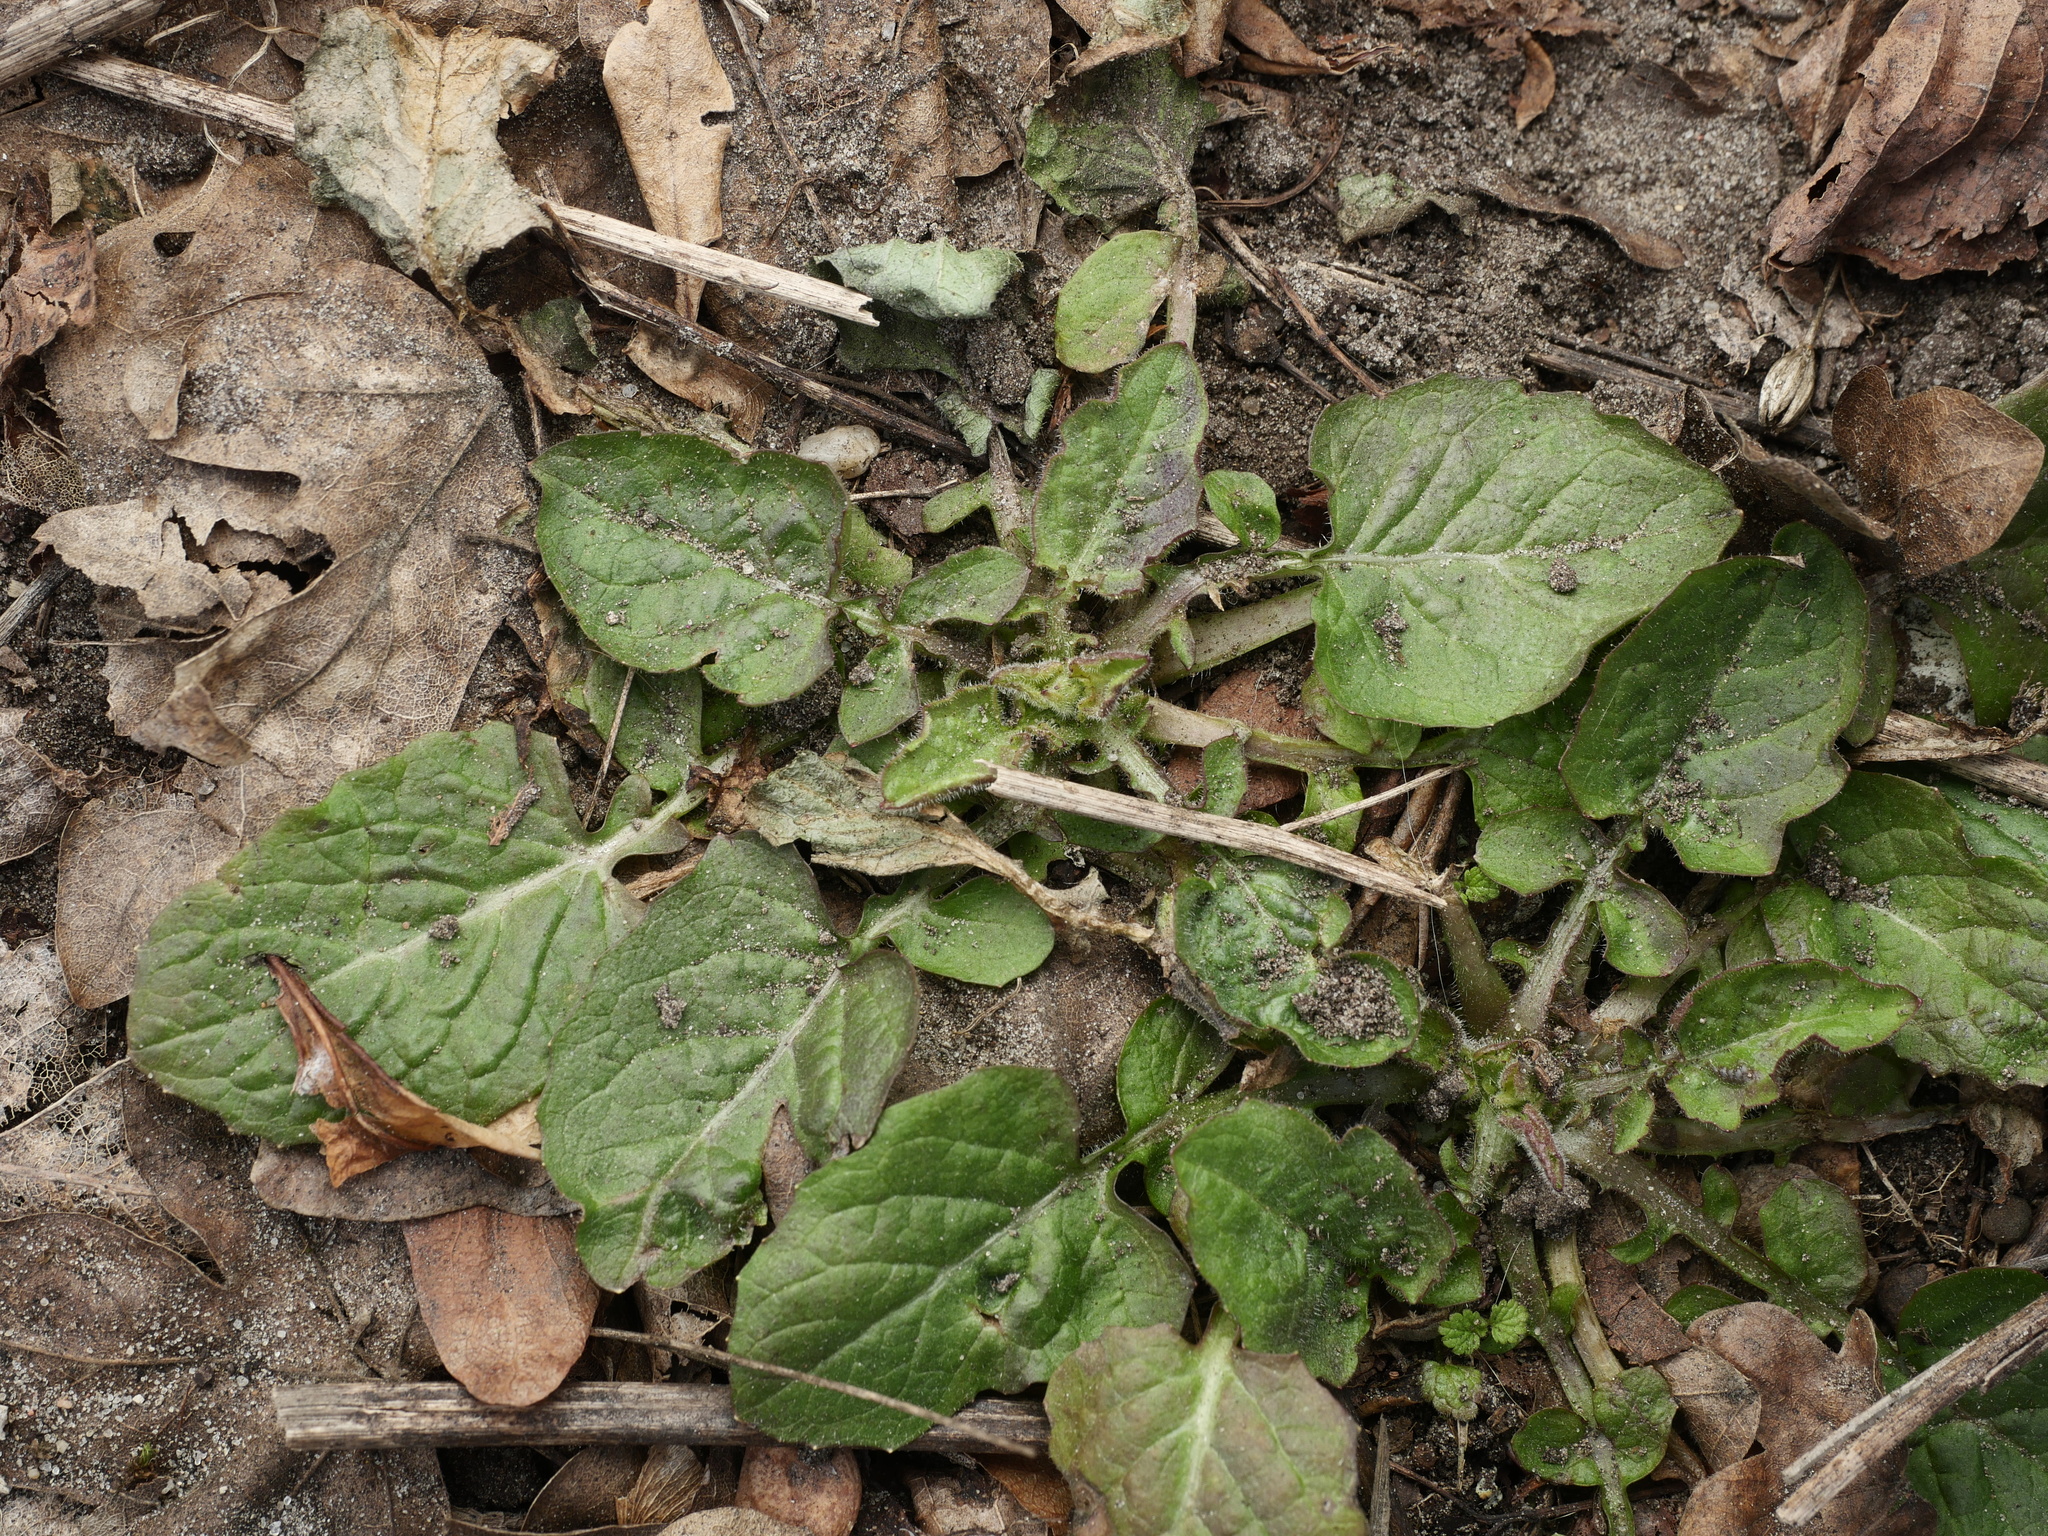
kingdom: Plantae
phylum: Tracheophyta
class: Magnoliopsida
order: Asterales
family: Asteraceae
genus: Lapsana
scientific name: Lapsana communis
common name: Nipplewort
